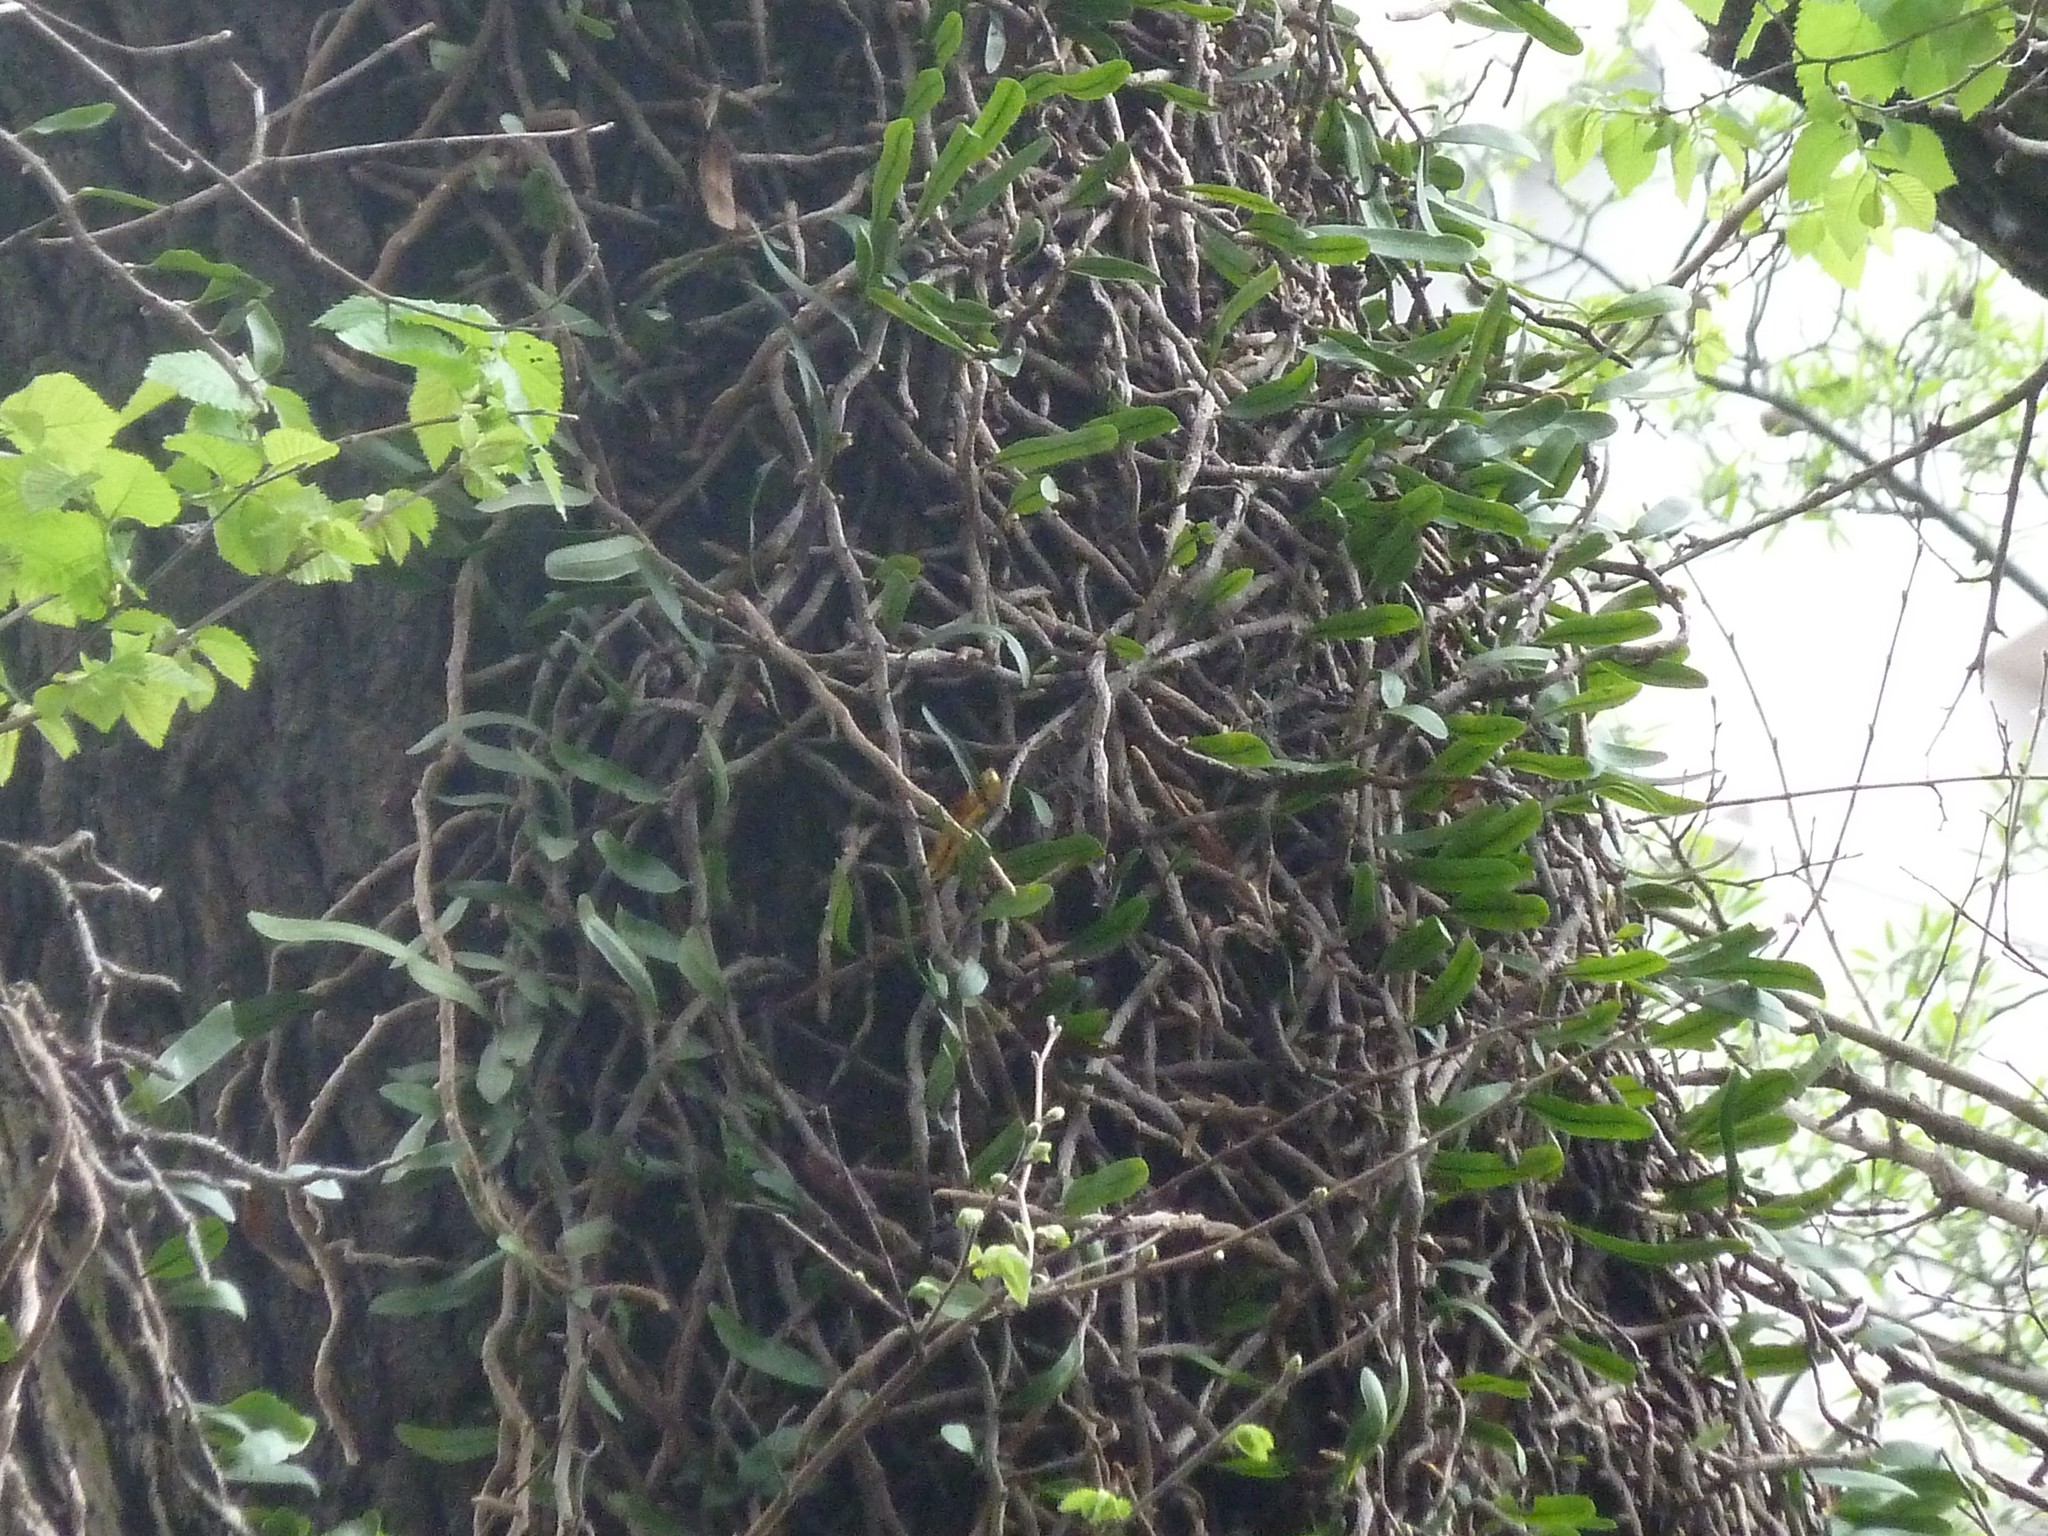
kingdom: Plantae
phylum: Tracheophyta
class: Polypodiopsida
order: Polypodiales
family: Polypodiaceae
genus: Microgramma
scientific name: Microgramma vaccinifolia
